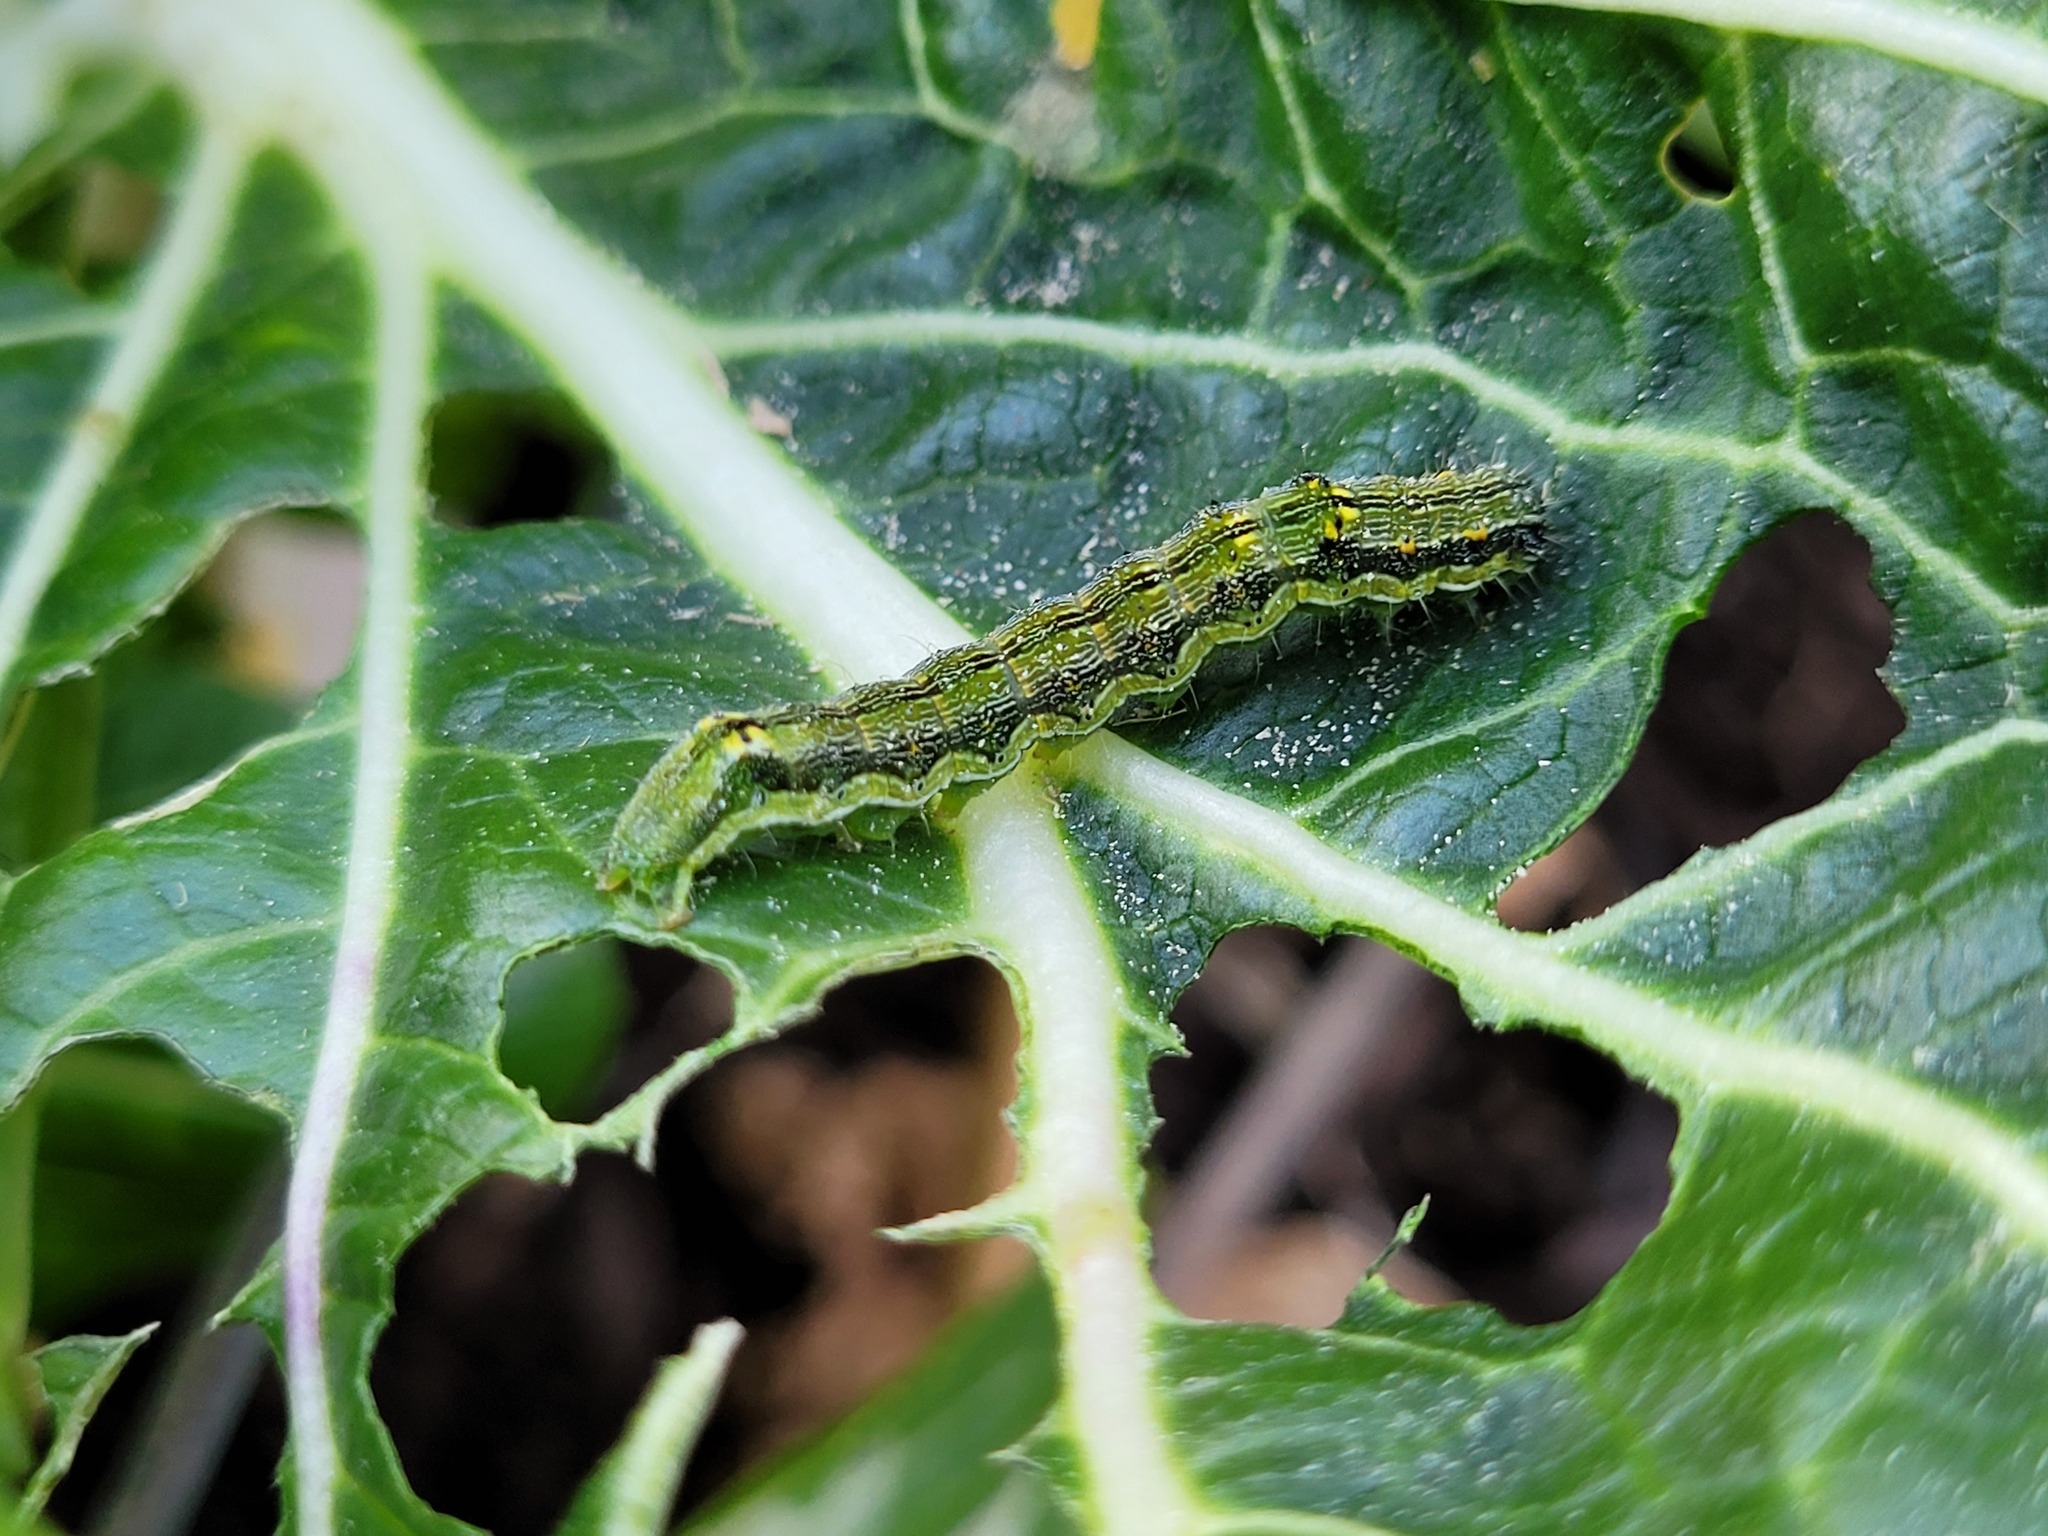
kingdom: Animalia
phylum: Arthropoda
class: Insecta
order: Lepidoptera
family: Noctuidae
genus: Helicoverpa
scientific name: Helicoverpa armigera
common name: Cotton bollworm
